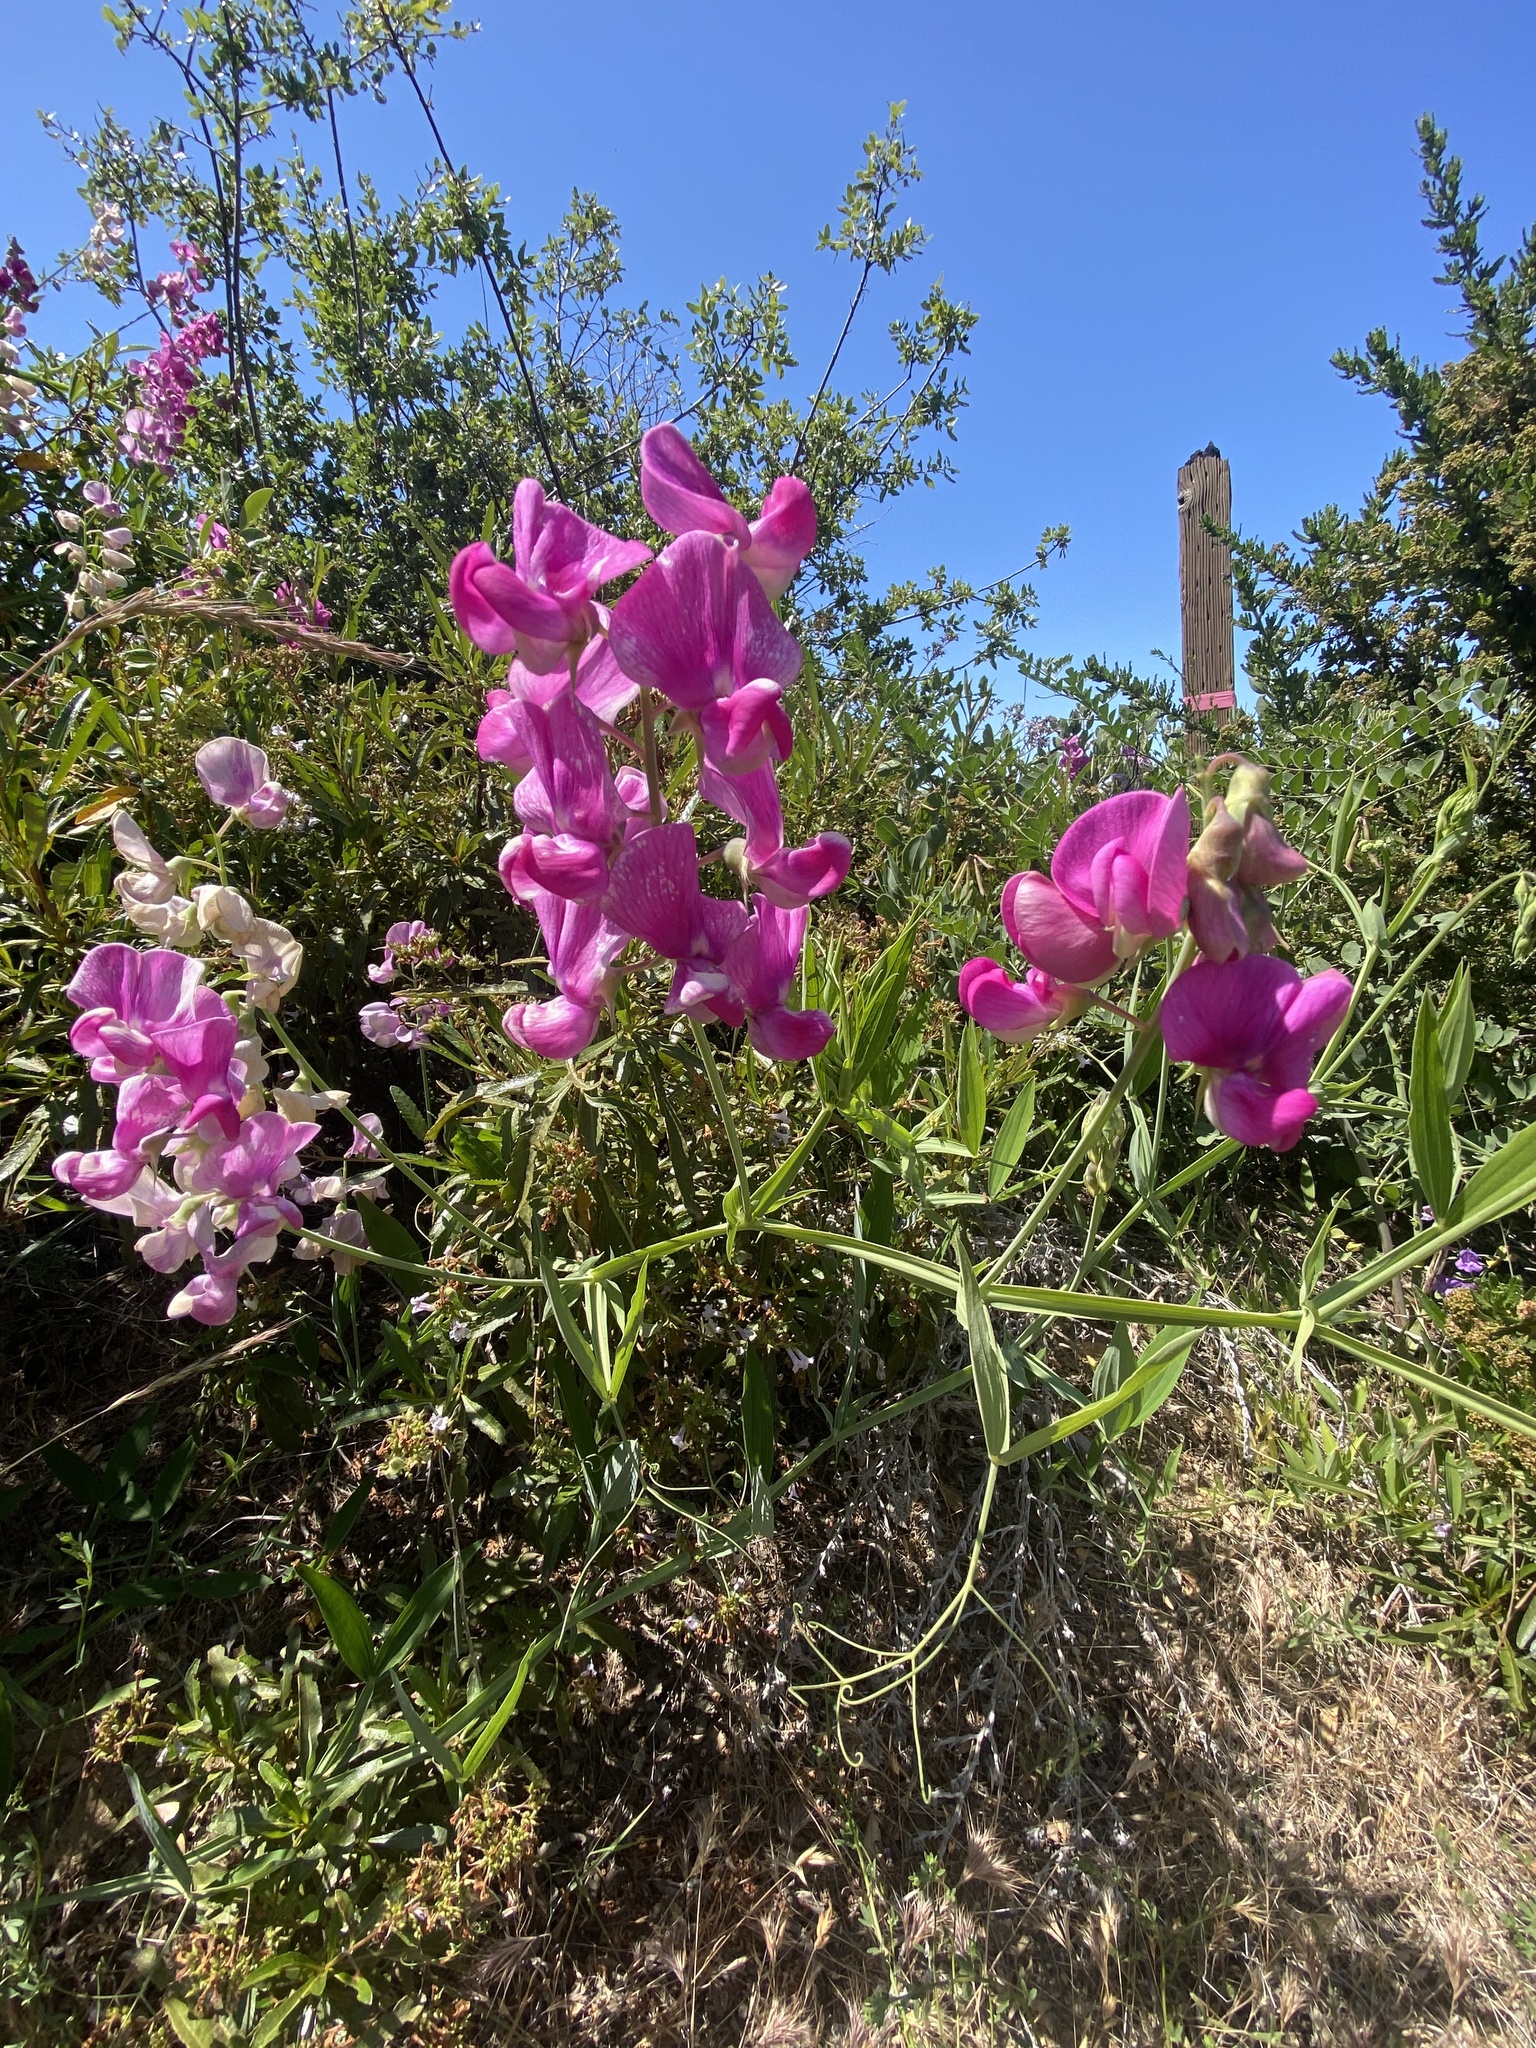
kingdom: Plantae
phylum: Tracheophyta
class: Magnoliopsida
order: Fabales
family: Fabaceae
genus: Lathyrus
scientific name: Lathyrus latifolius
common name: Perennial pea
